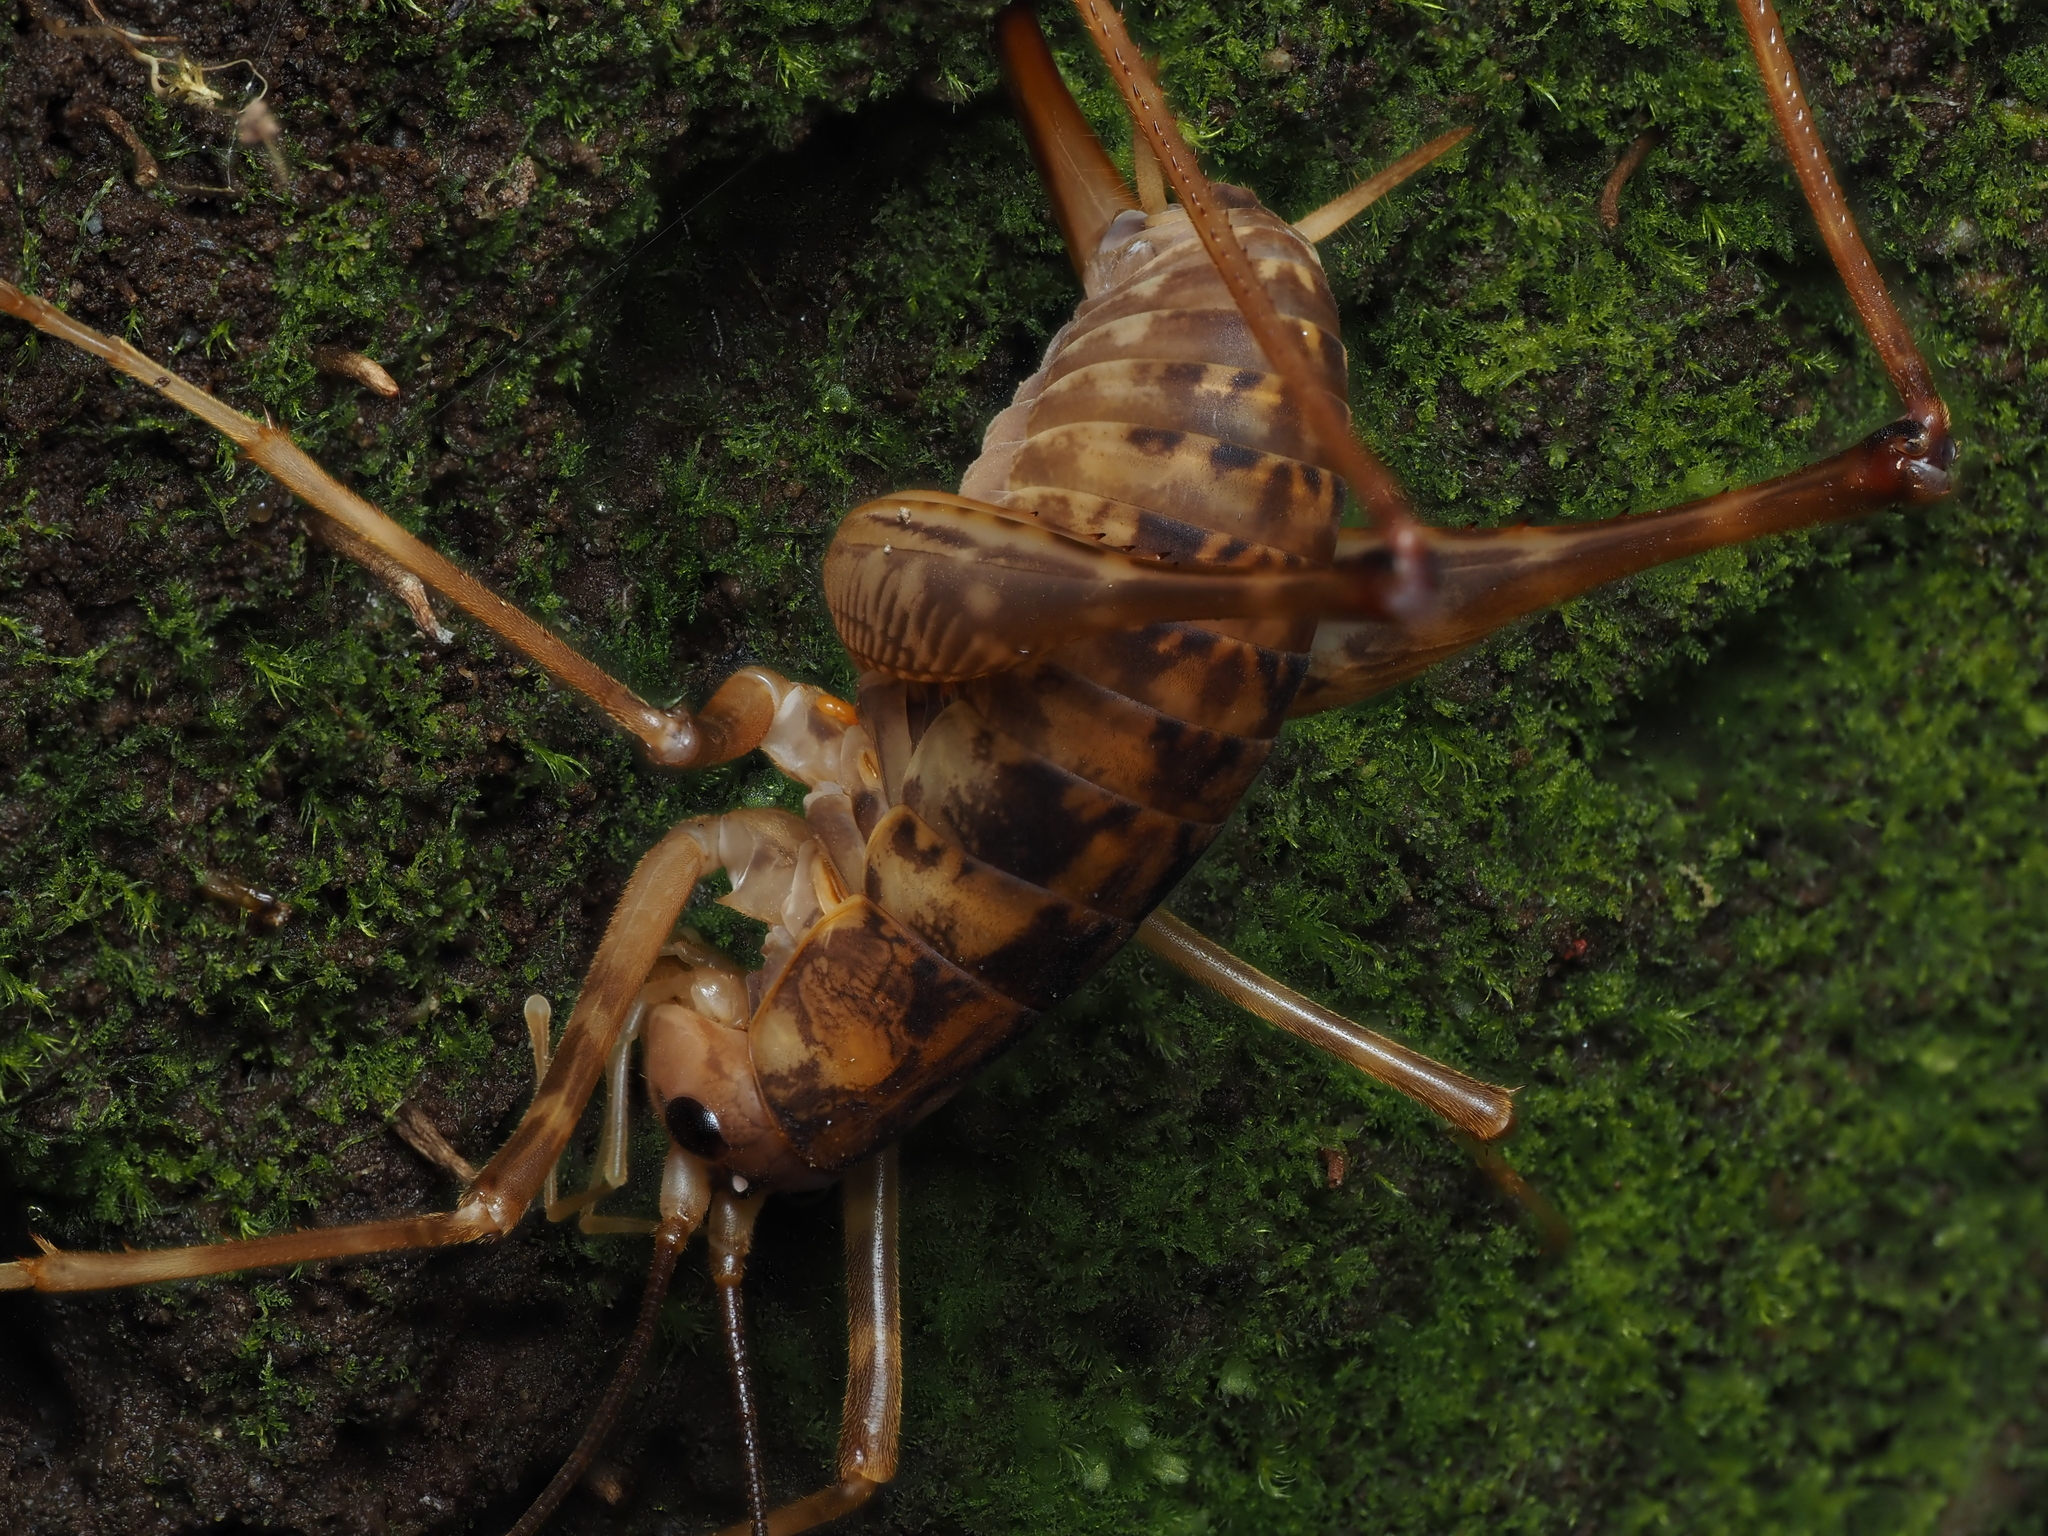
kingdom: Animalia
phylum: Arthropoda
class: Insecta
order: Orthoptera
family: Rhaphidophoridae
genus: Pachyrhamma
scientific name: Pachyrhamma cavernae
